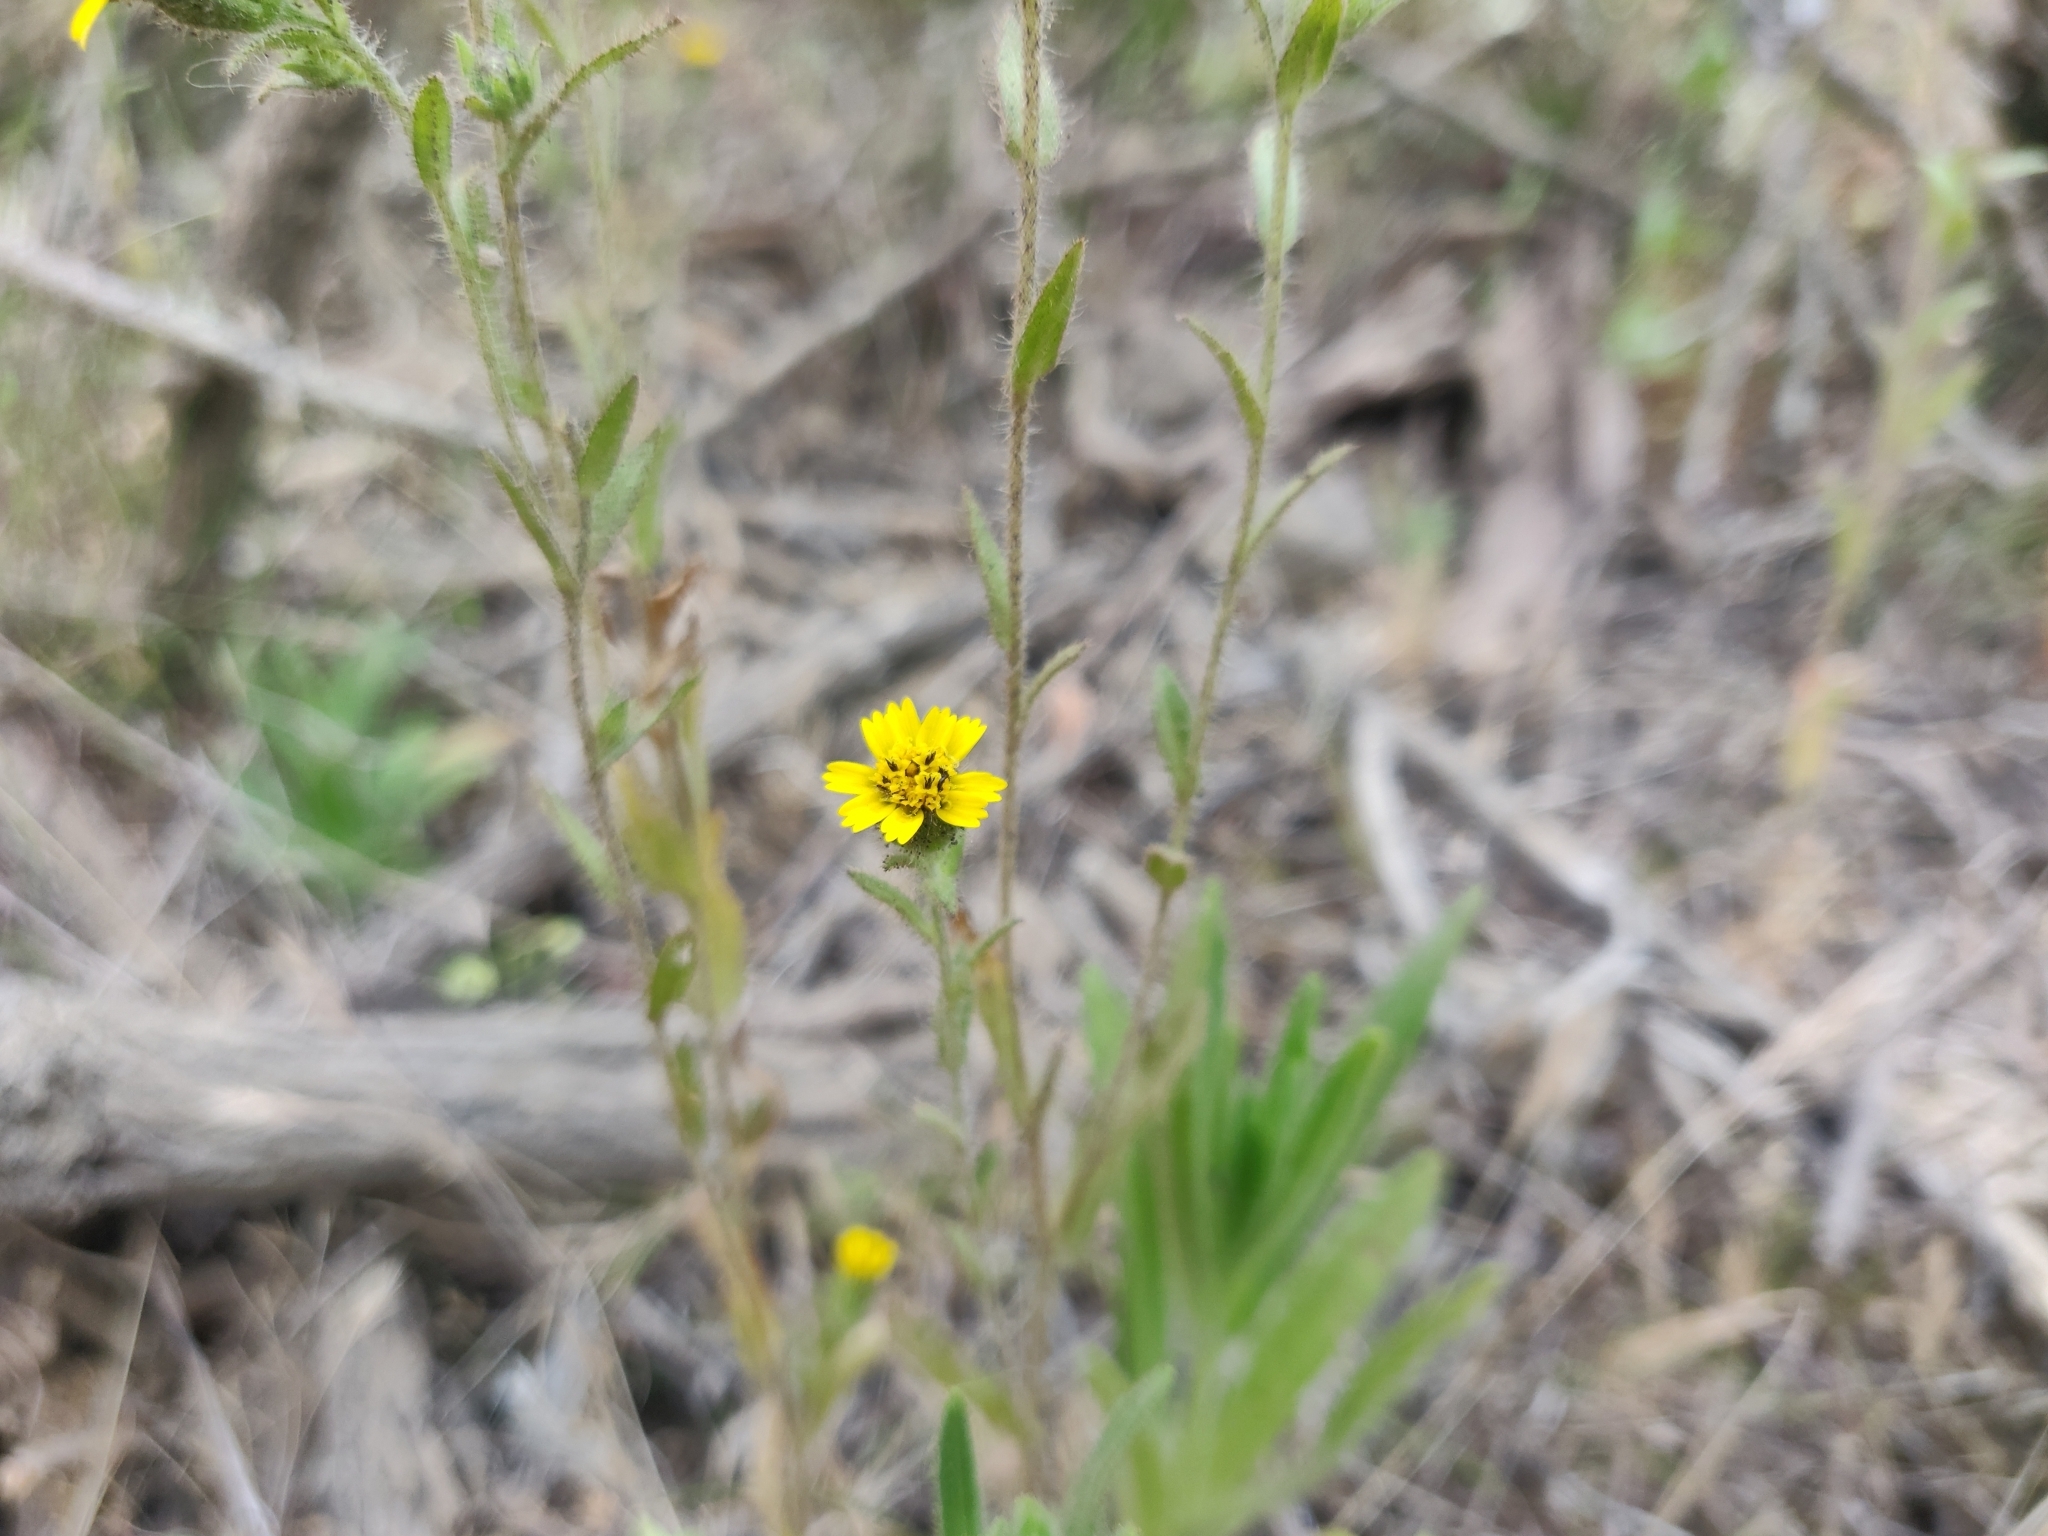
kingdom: Plantae
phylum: Tracheophyta
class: Magnoliopsida
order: Asterales
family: Asteraceae
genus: Layia
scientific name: Layia hieracioides
